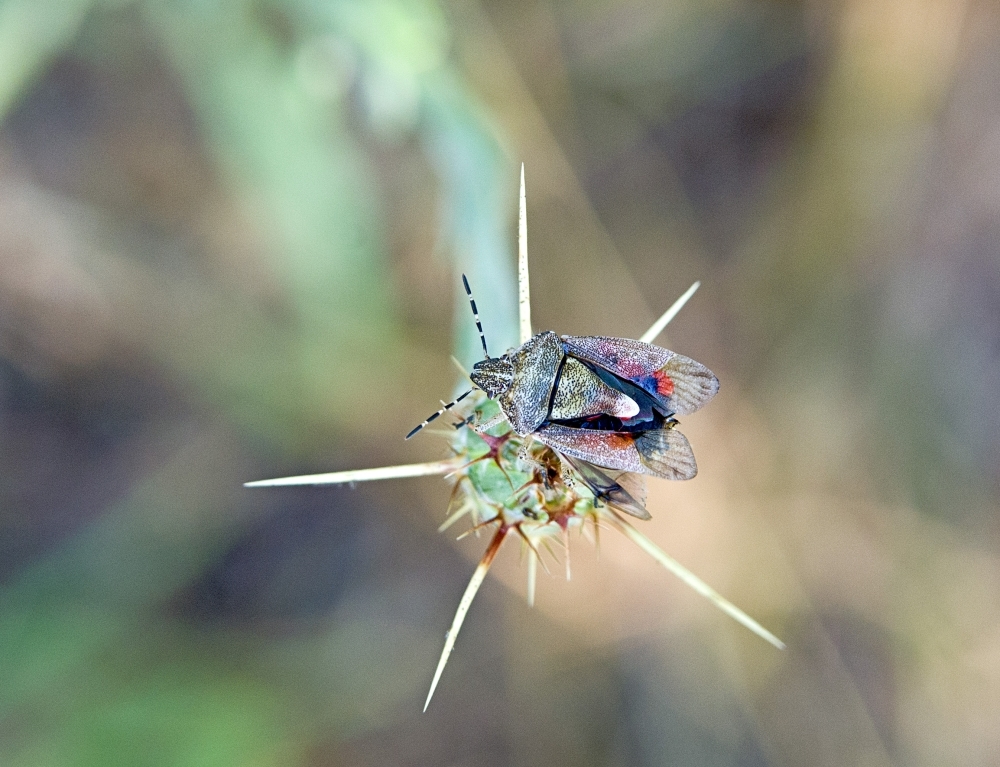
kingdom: Animalia
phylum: Arthropoda
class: Insecta
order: Hemiptera
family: Pentatomidae
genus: Dolycoris
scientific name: Dolycoris baccarum
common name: Sloe bug
